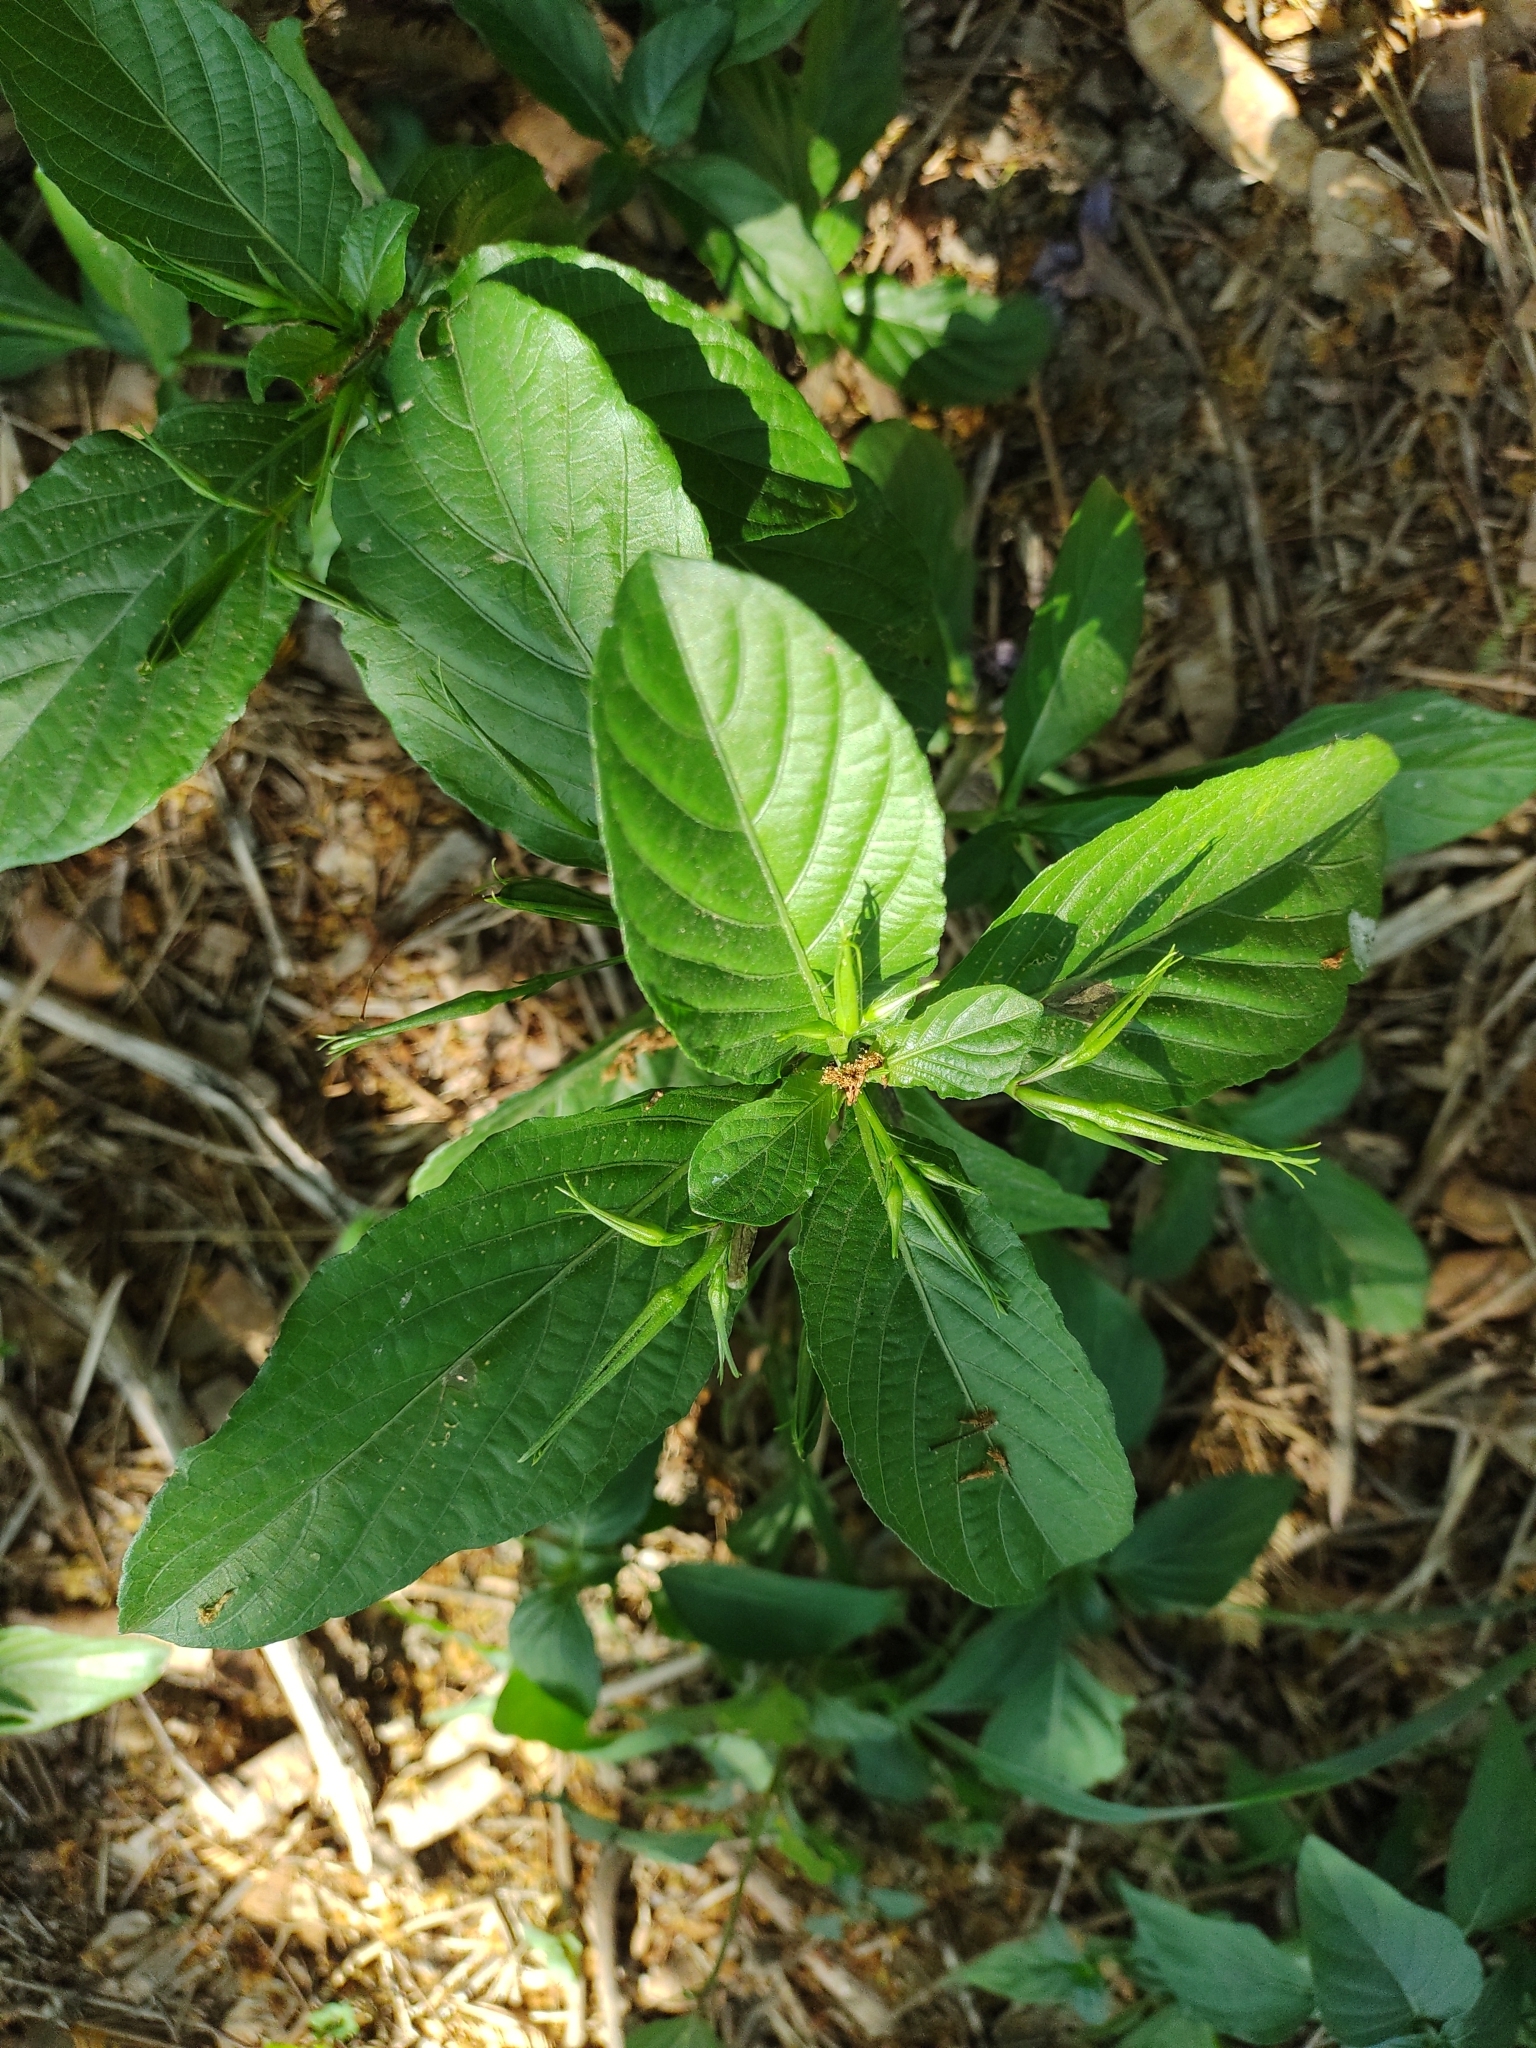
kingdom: Plantae
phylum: Tracheophyta
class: Magnoliopsida
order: Lamiales
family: Acanthaceae
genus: Ruellia
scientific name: Ruellia tuberosa
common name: Devil's bit
